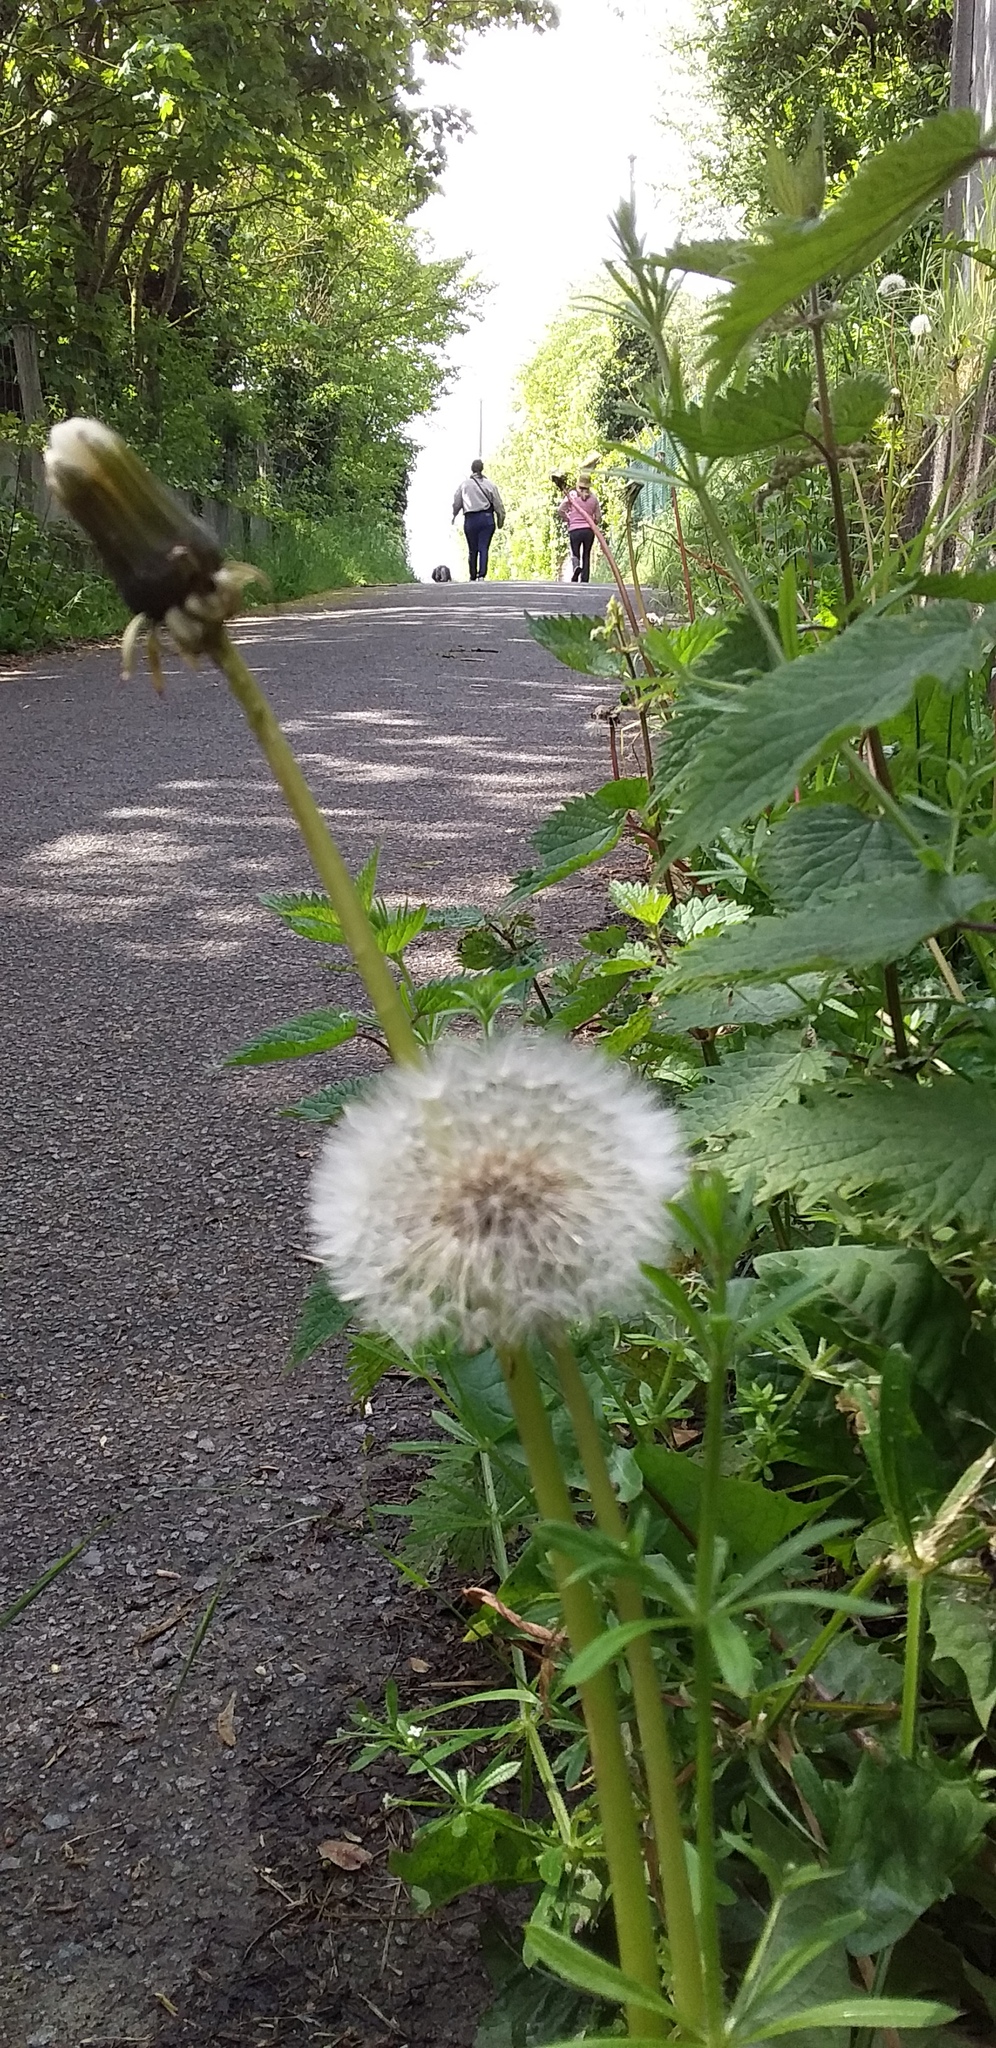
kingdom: Plantae
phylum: Tracheophyta
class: Magnoliopsida
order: Asterales
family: Asteraceae
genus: Taraxacum
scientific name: Taraxacum officinale
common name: Common dandelion
